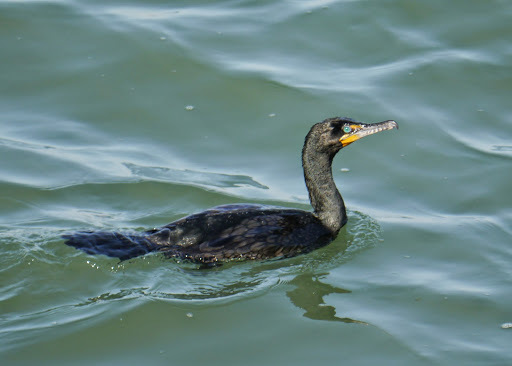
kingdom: Animalia
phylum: Chordata
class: Aves
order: Suliformes
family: Phalacrocoracidae
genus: Phalacrocorax
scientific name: Phalacrocorax auritus
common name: Double-crested cormorant
